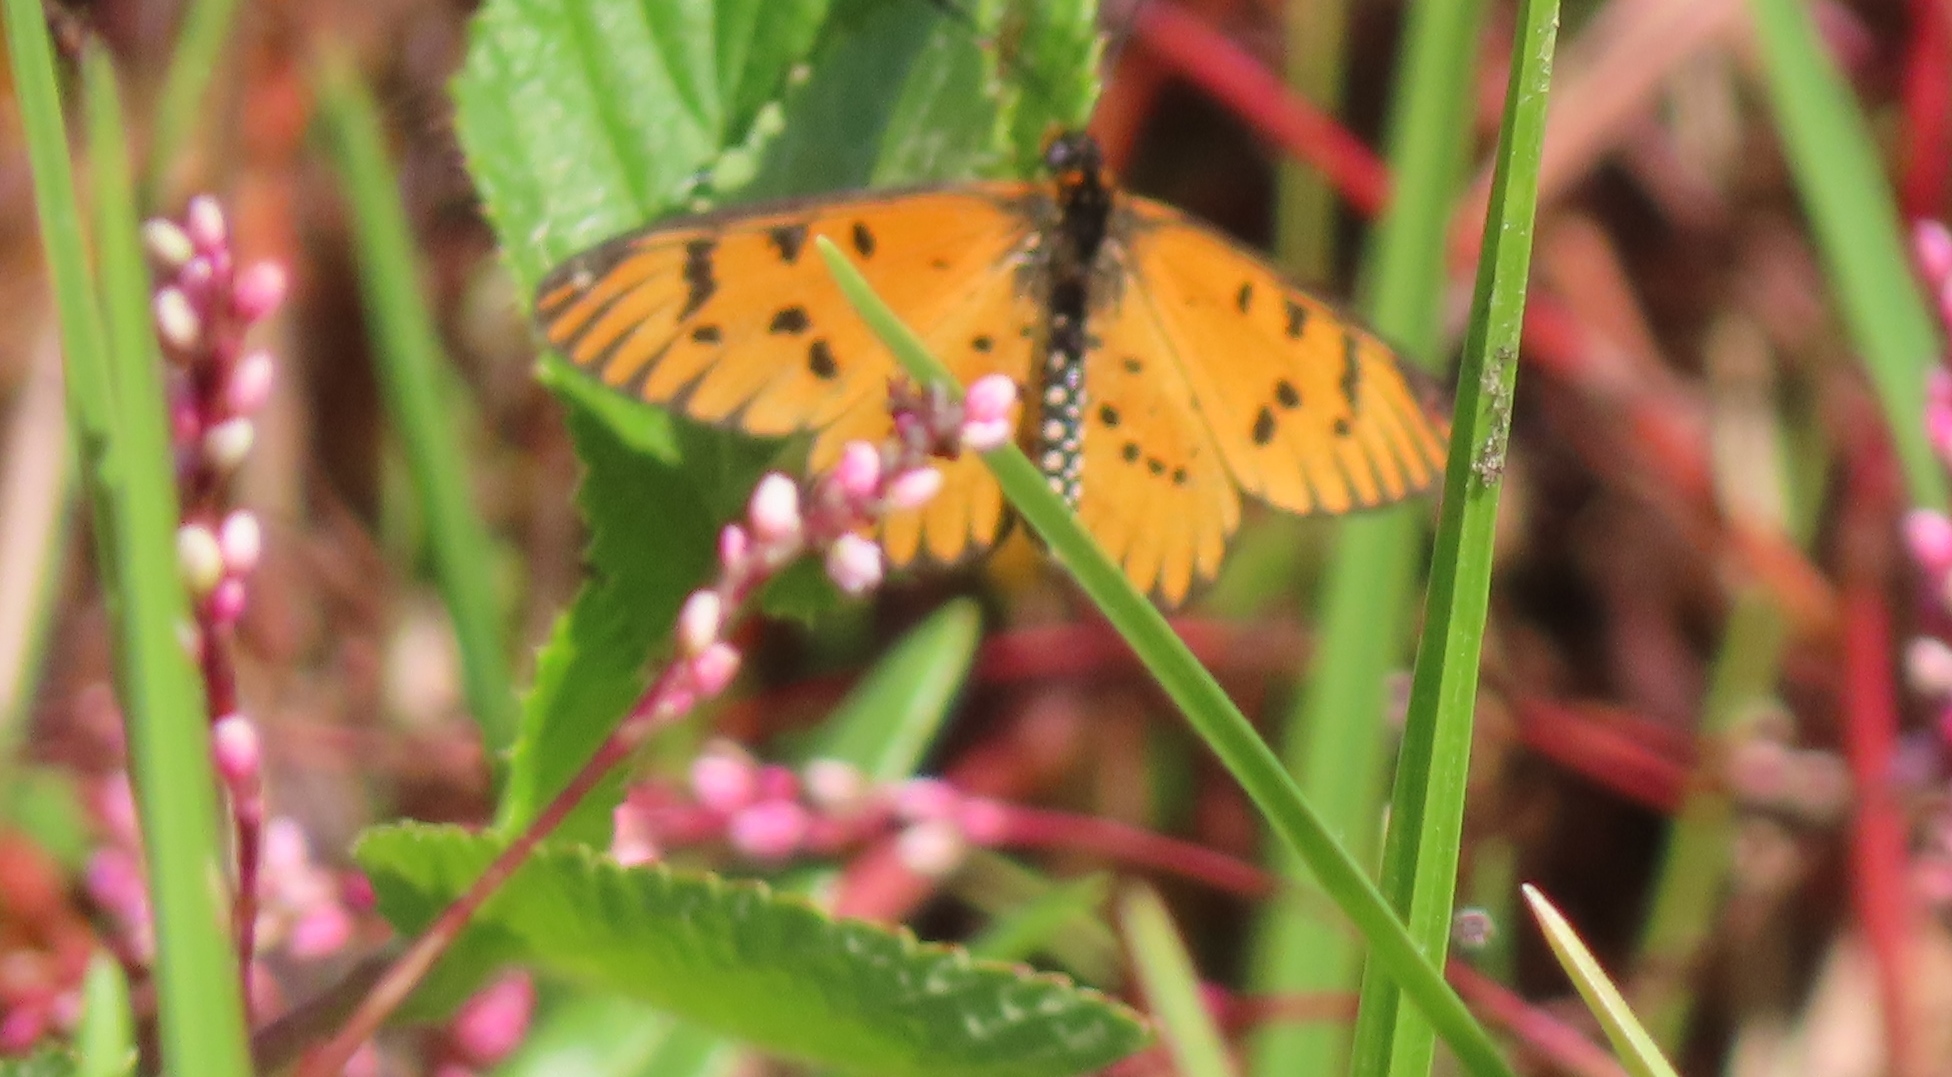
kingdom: Animalia
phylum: Arthropoda
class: Insecta
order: Lepidoptera
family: Nymphalidae
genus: Acraea
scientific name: Acraea rahira
